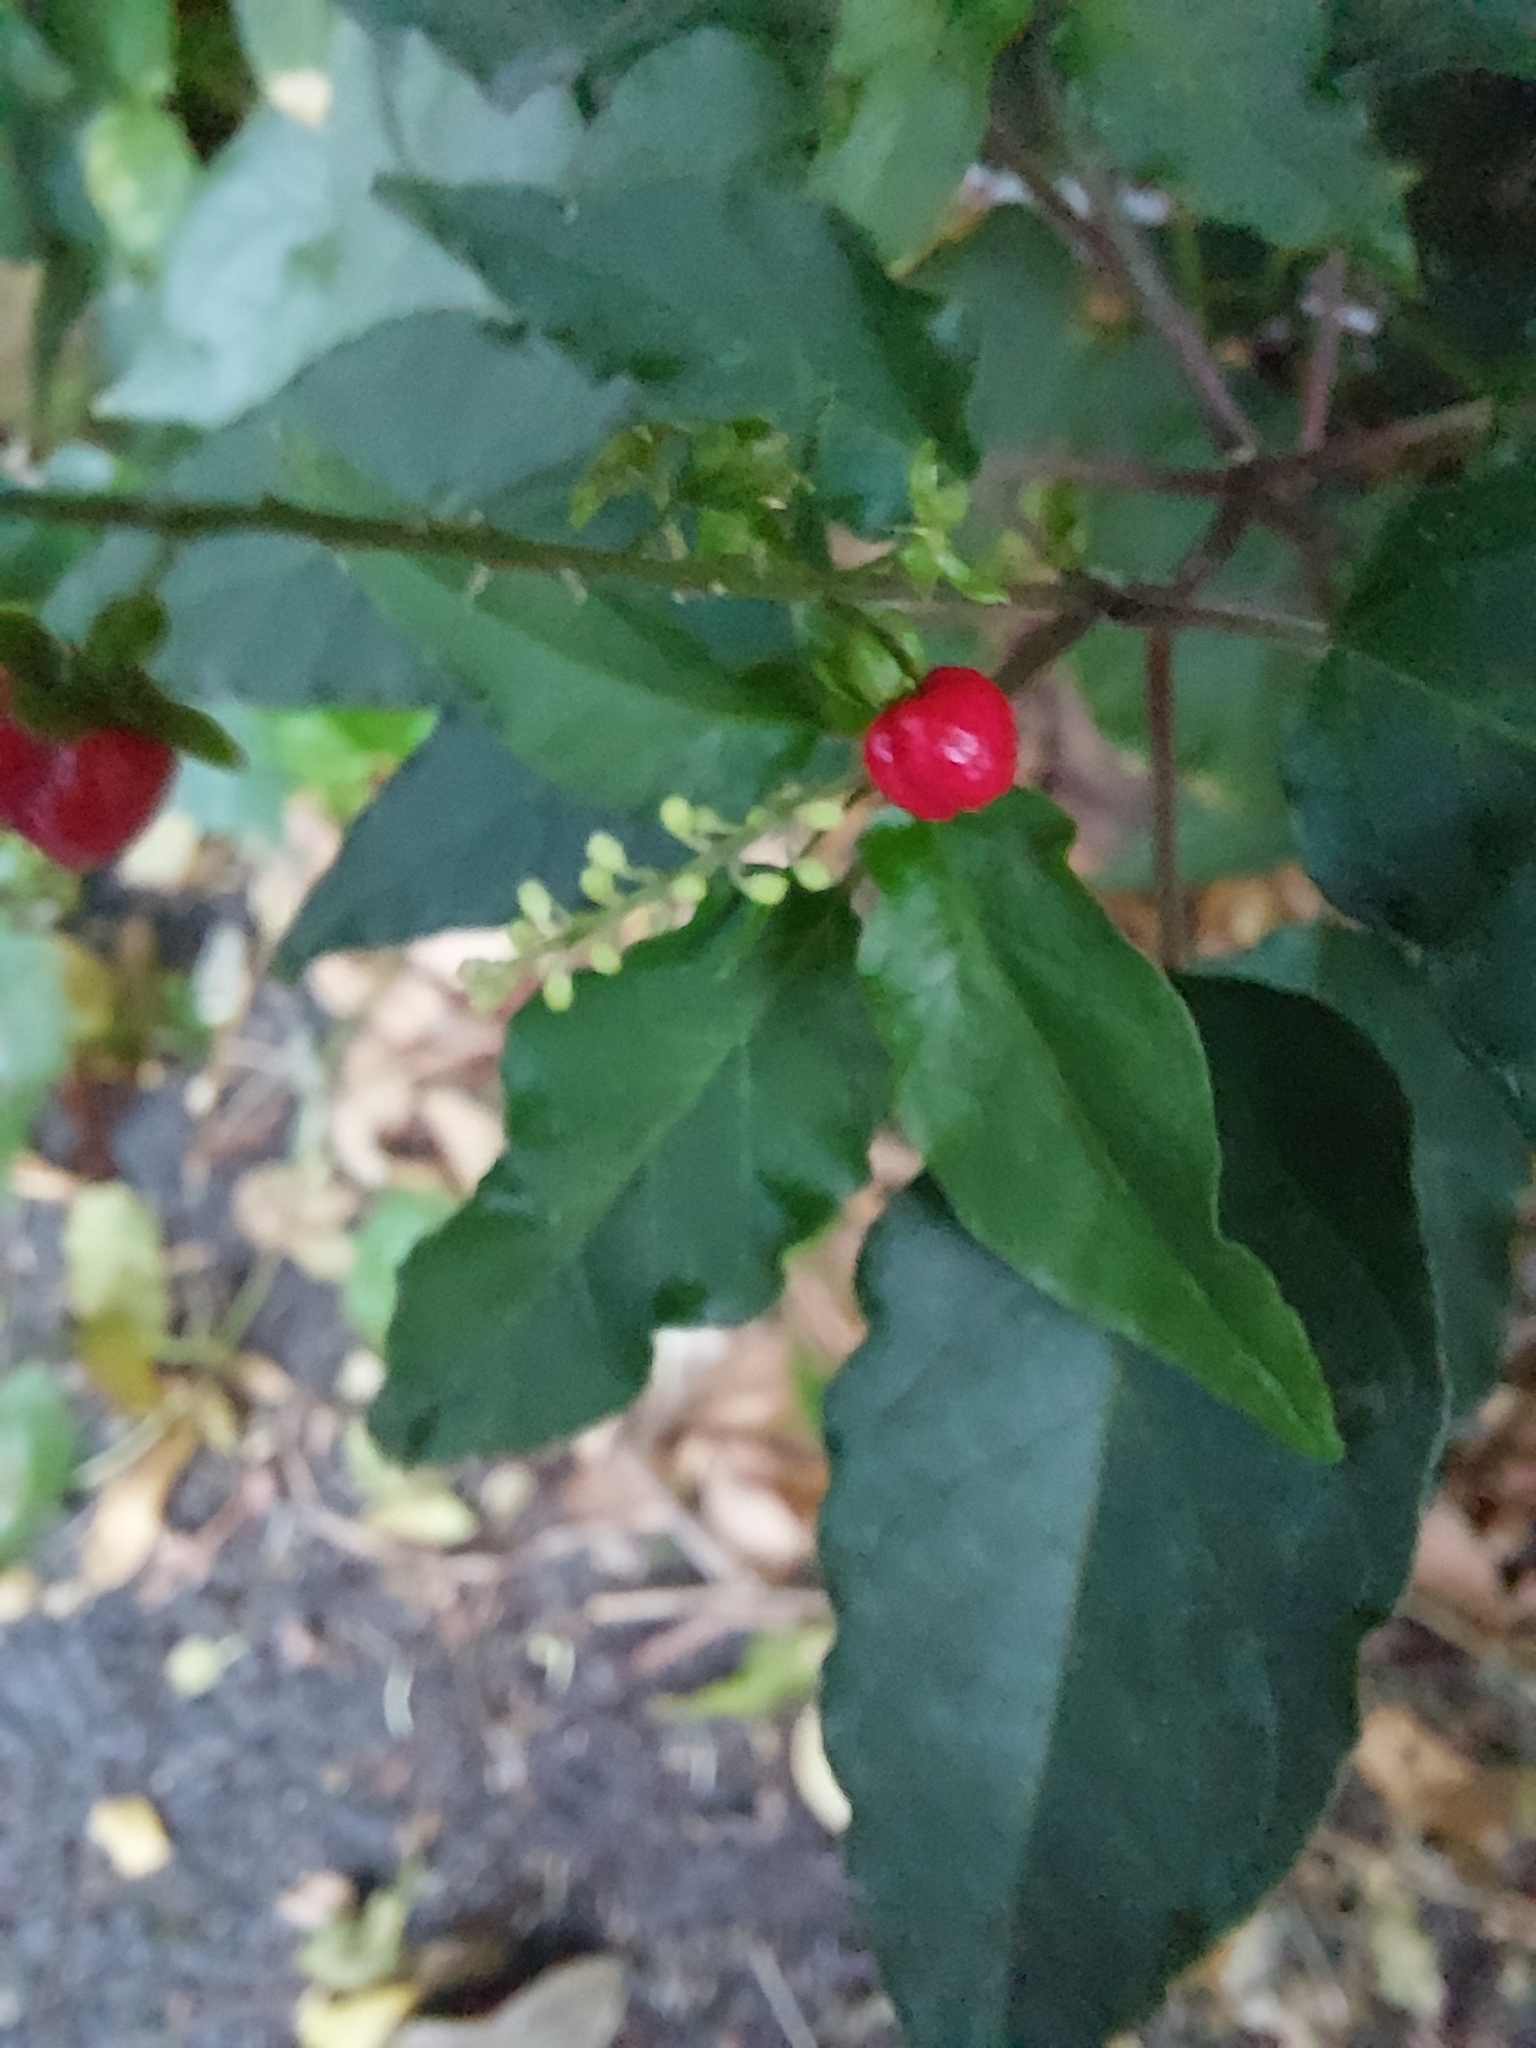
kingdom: Plantae
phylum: Tracheophyta
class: Magnoliopsida
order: Caryophyllales
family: Phytolaccaceae
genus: Rivina
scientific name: Rivina humilis
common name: Rougeplant
